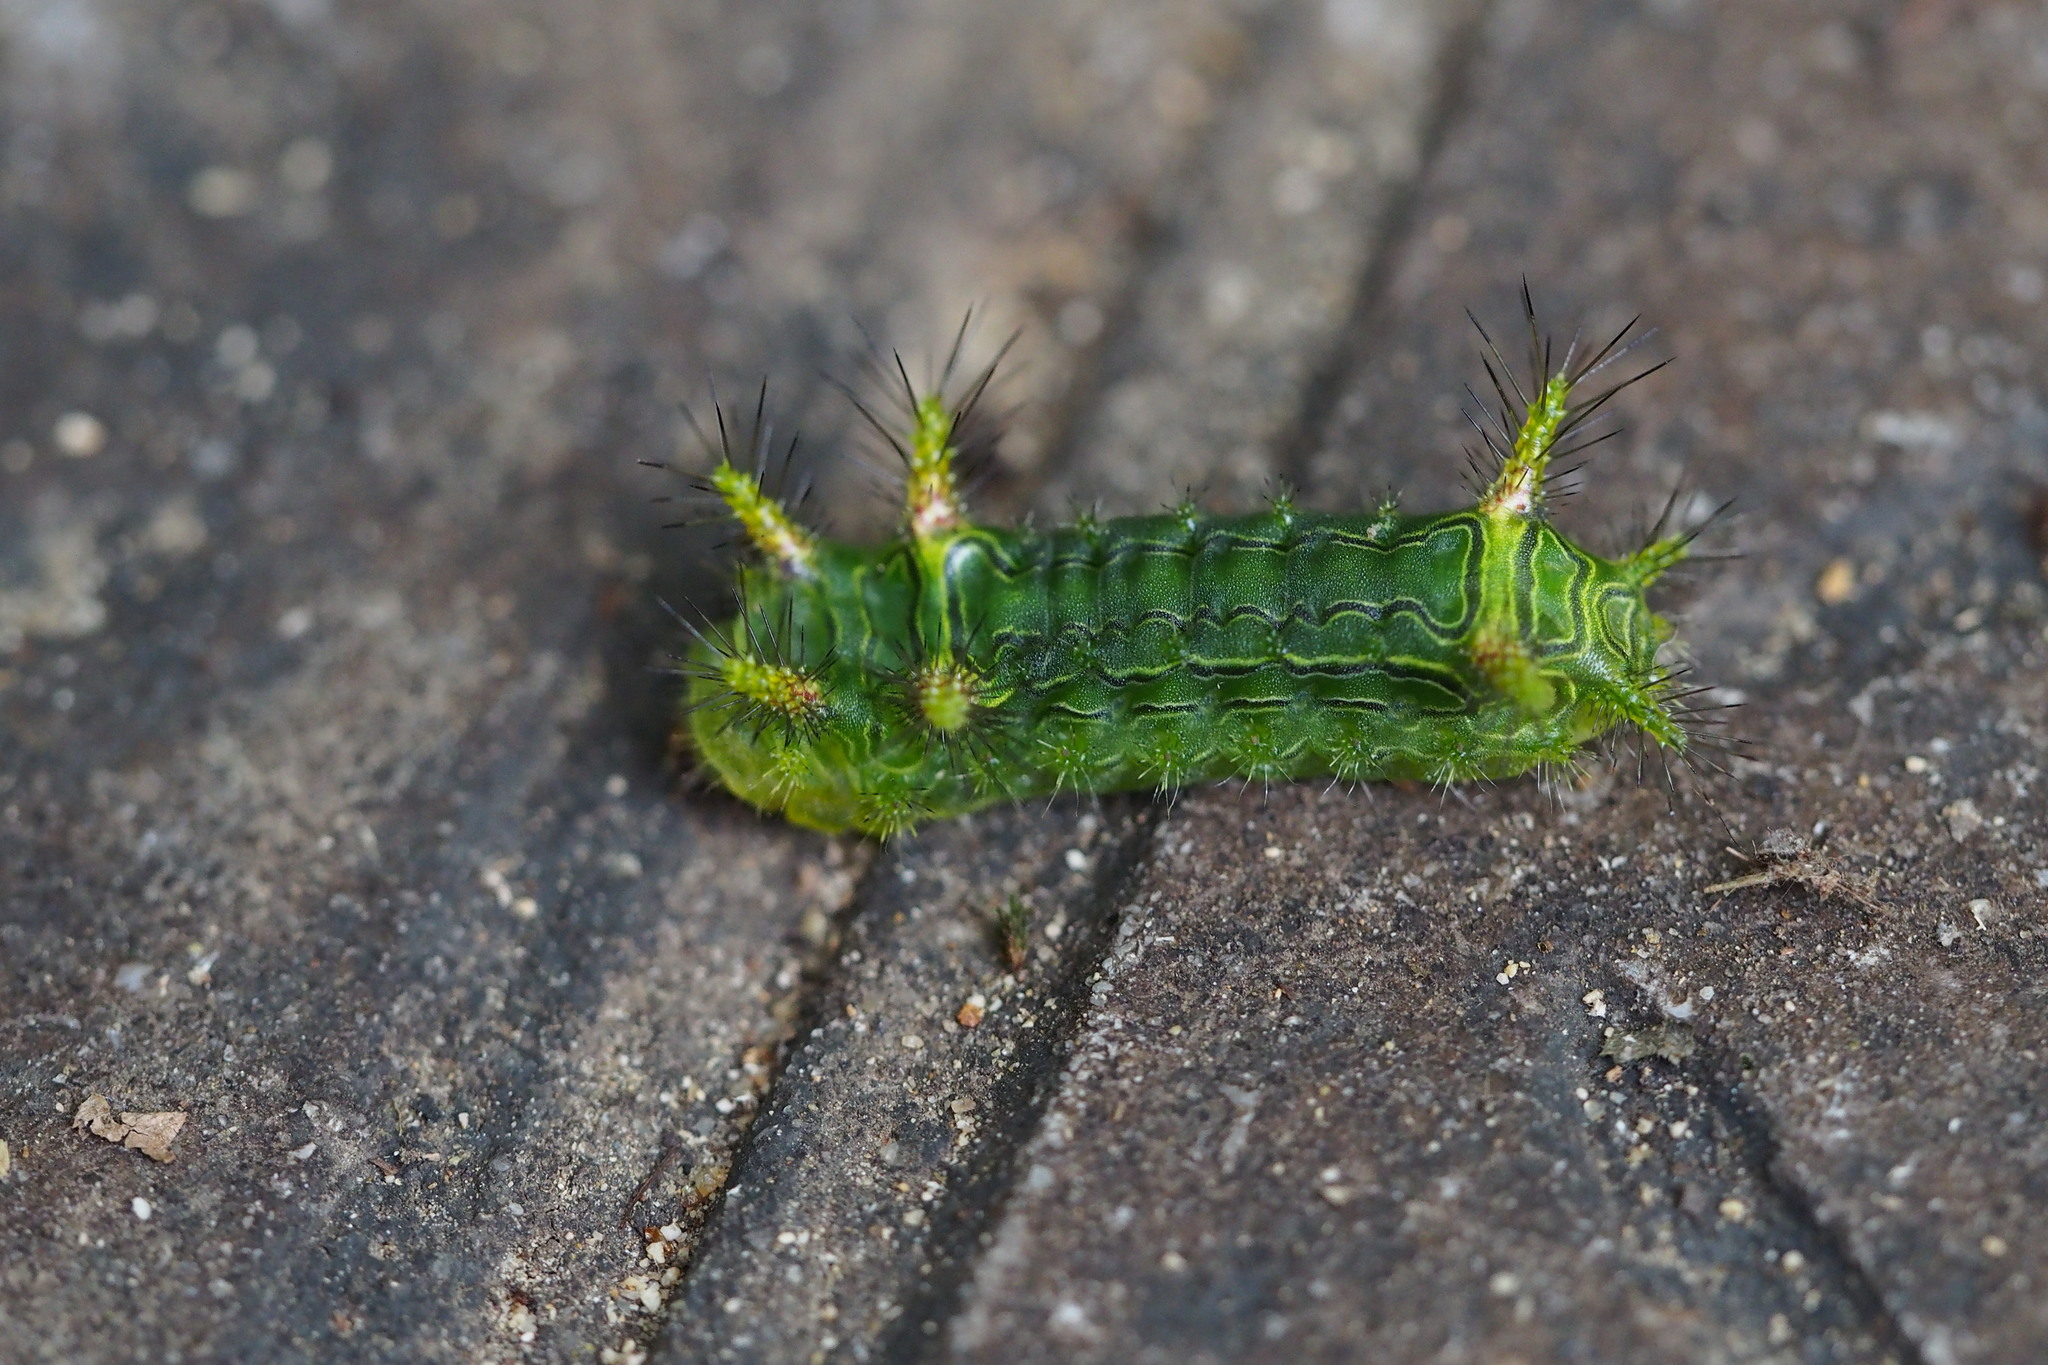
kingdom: Animalia
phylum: Arthropoda
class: Insecta
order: Lepidoptera
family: Limacodidae
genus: Narosoideus
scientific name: Narosoideus flavidorsalis
